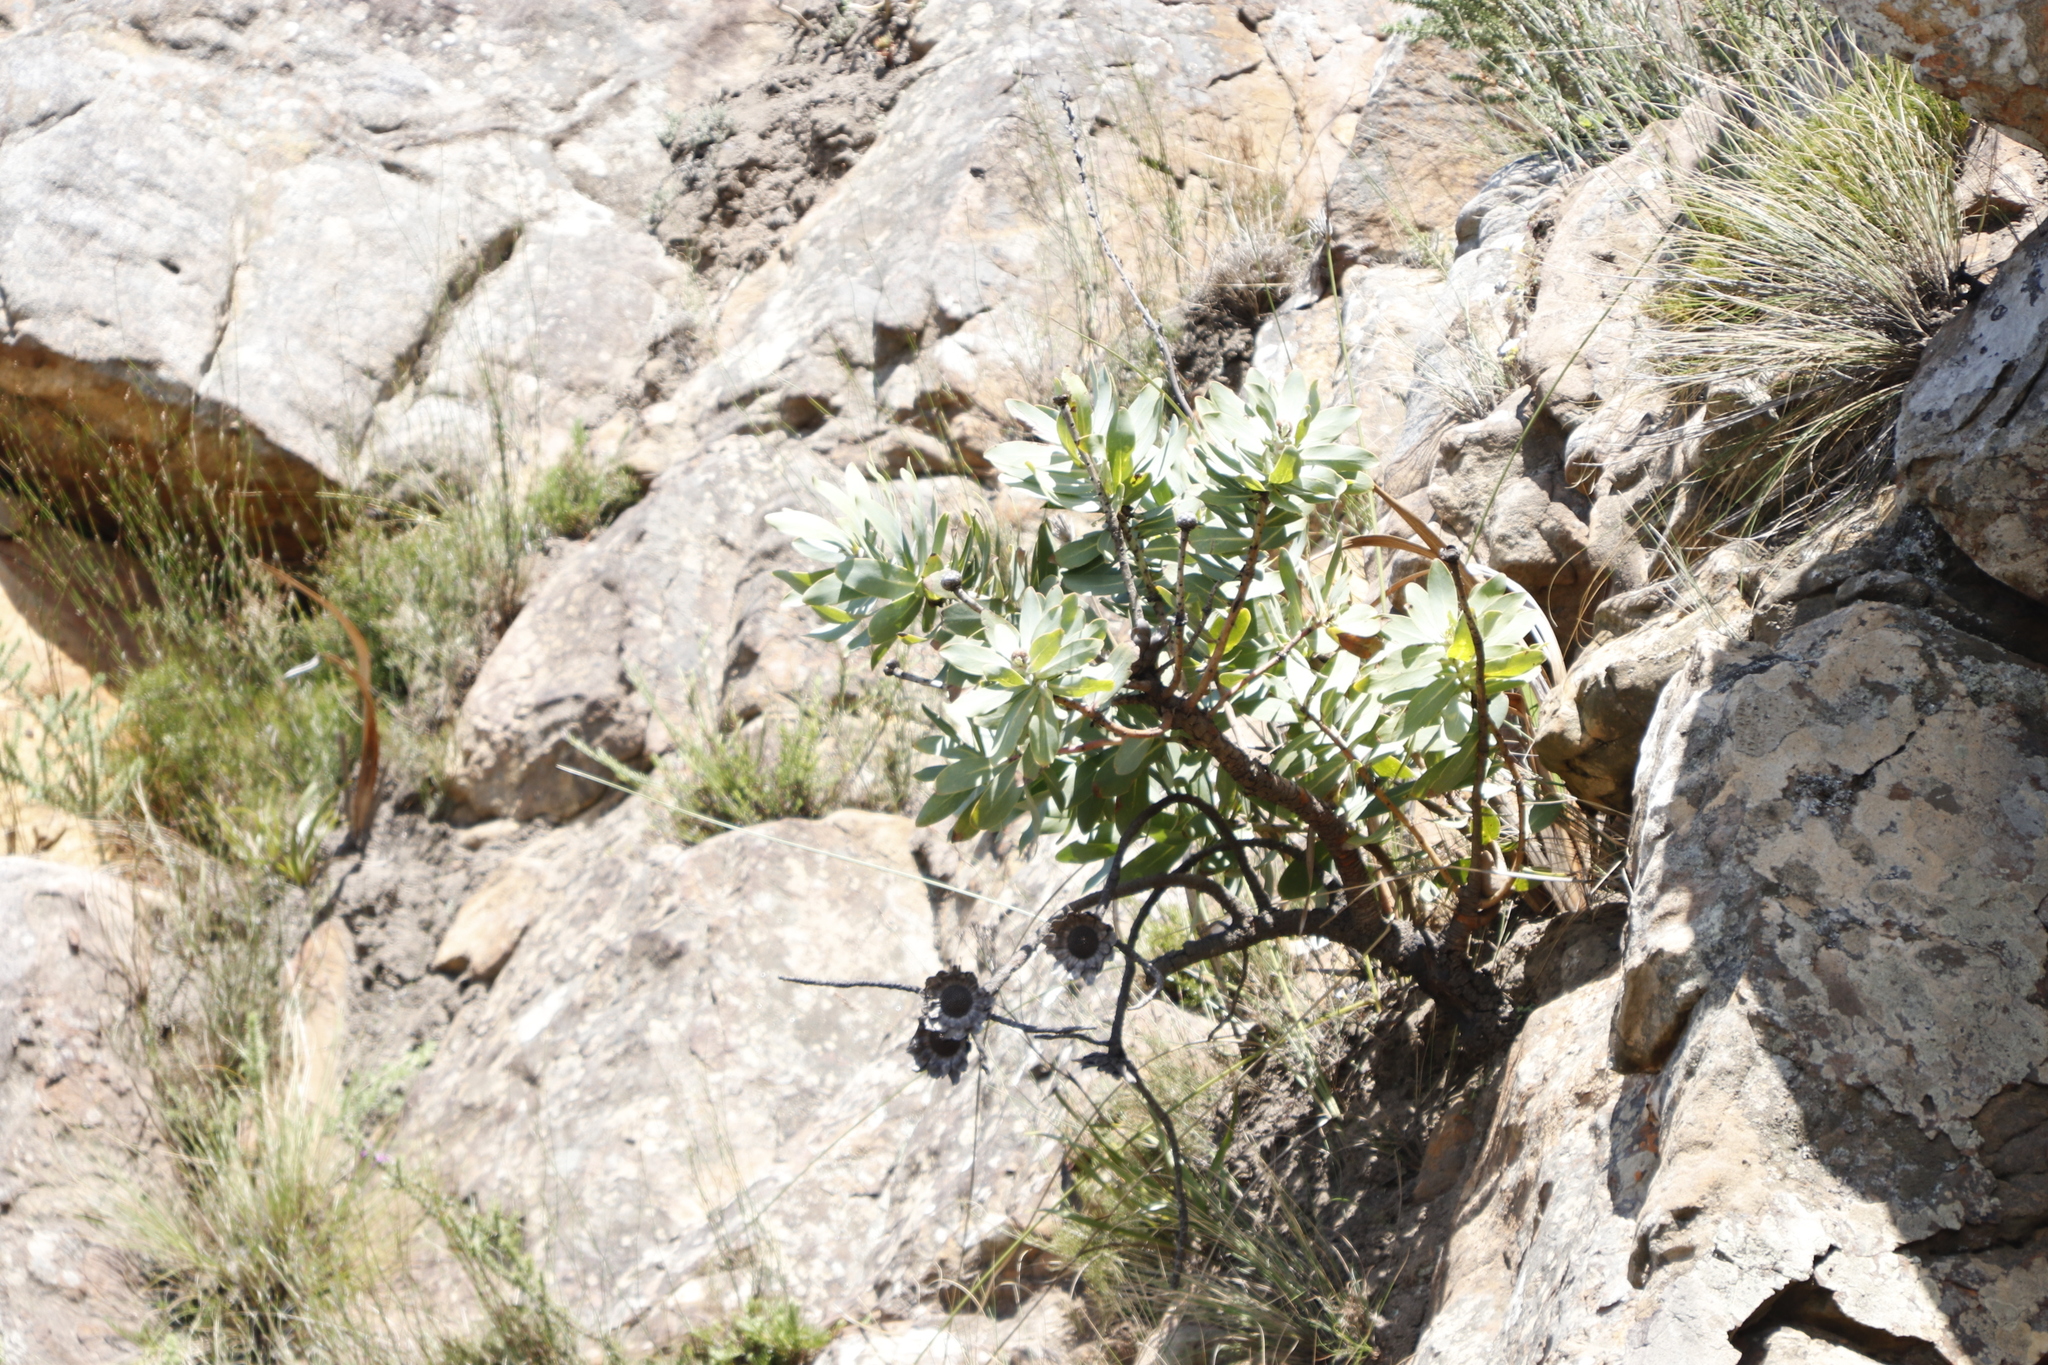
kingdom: Plantae
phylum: Tracheophyta
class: Magnoliopsida
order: Proteales
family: Proteaceae
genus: Protea
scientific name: Protea nitida
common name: Tree protea
